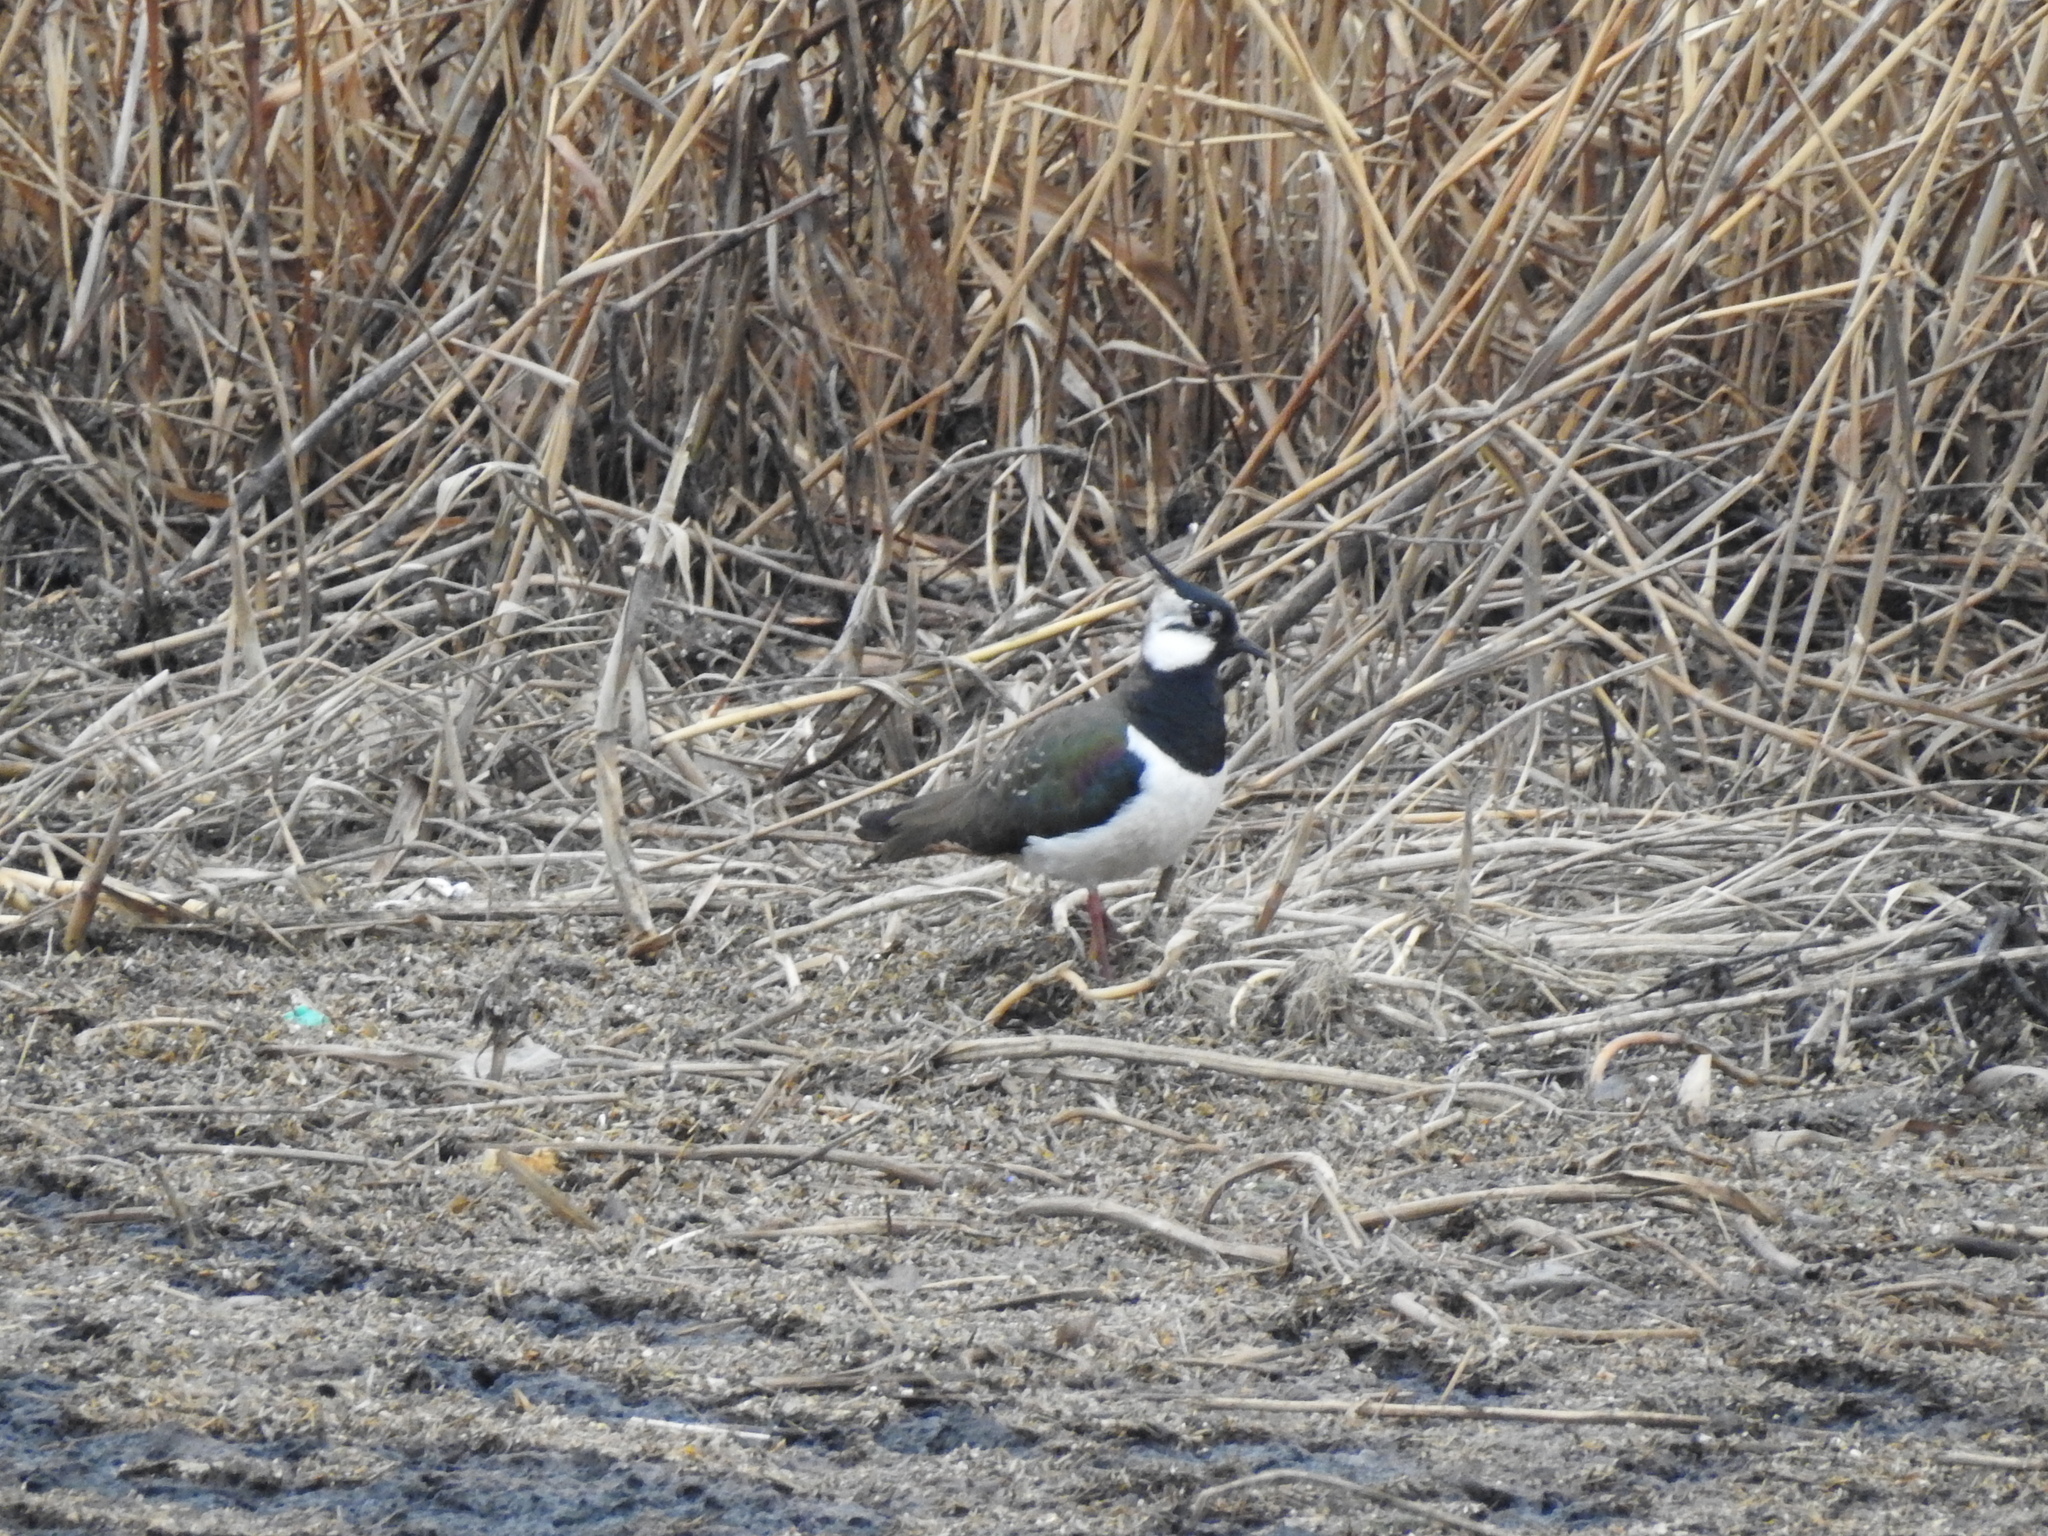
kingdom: Animalia
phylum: Chordata
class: Aves
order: Charadriiformes
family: Charadriidae
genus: Vanellus
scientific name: Vanellus vanellus
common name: Northern lapwing
